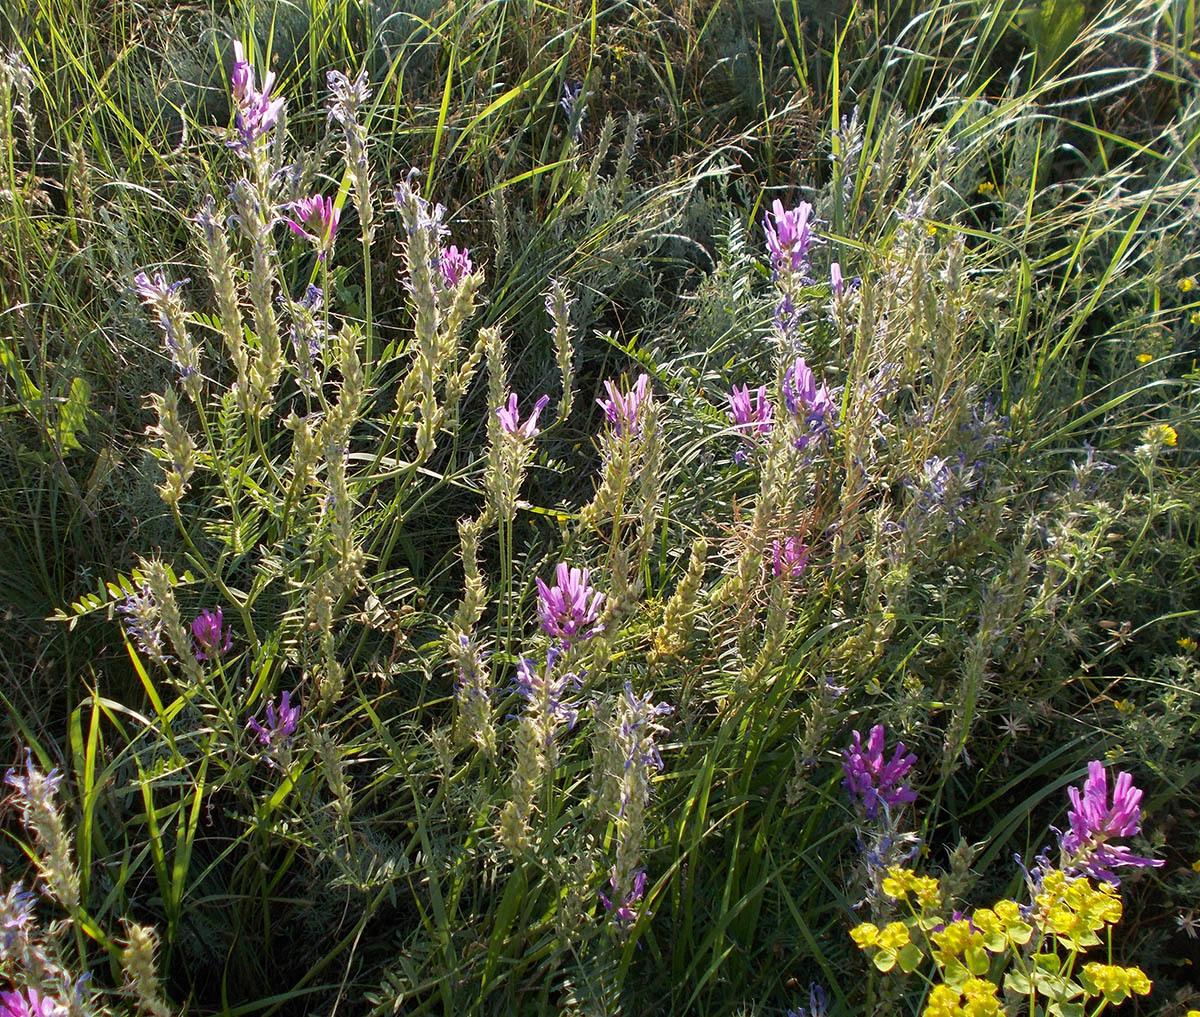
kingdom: Plantae
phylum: Tracheophyta
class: Magnoliopsida
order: Fabales
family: Fabaceae
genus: Astragalus
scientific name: Astragalus onobrychis
